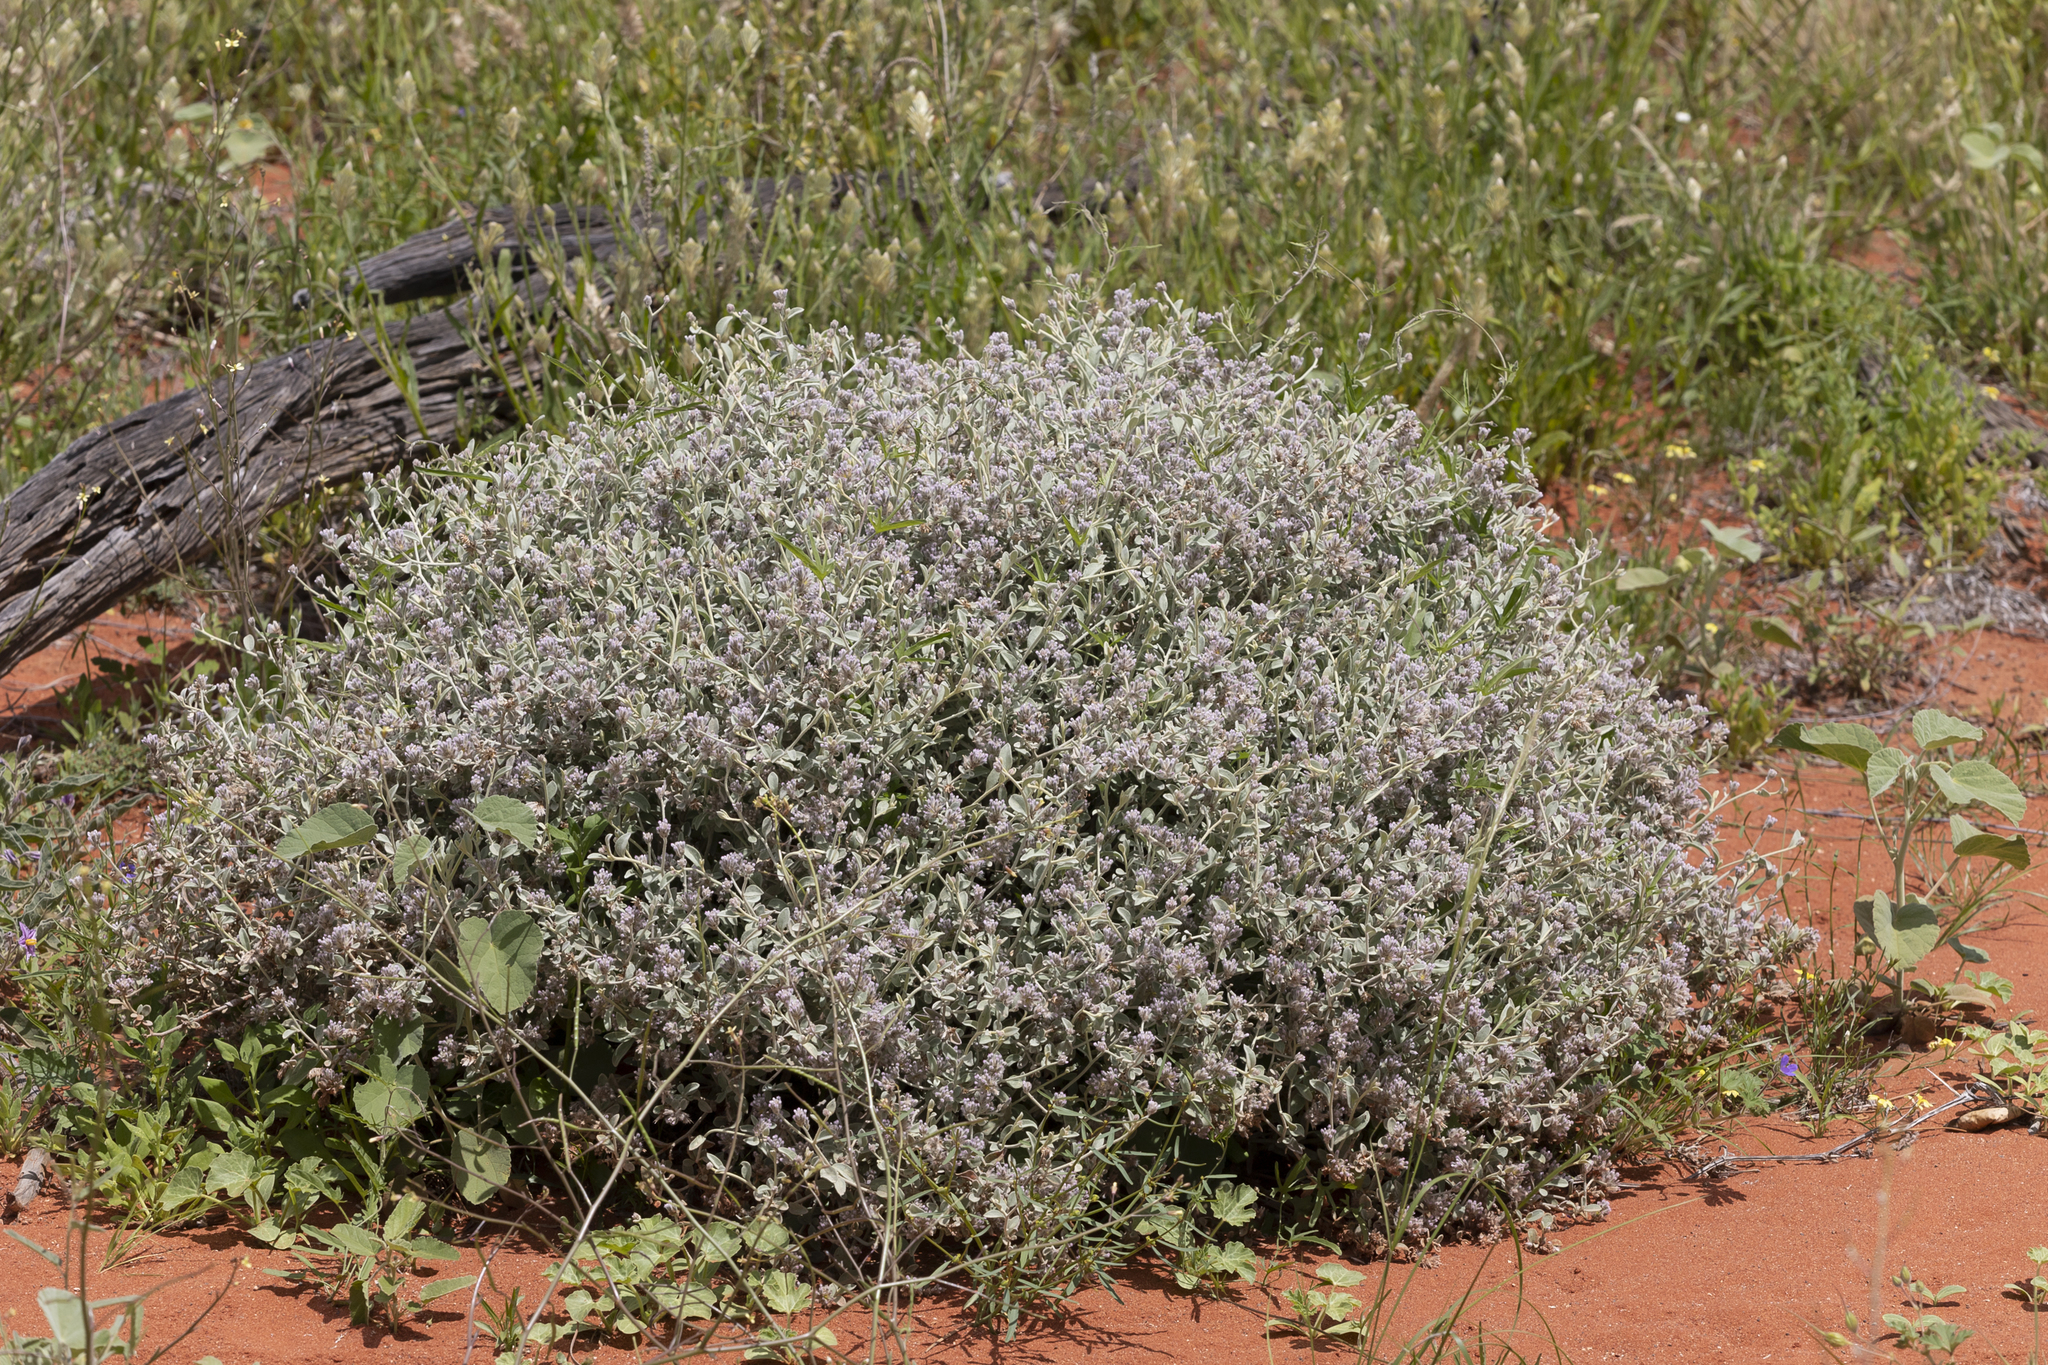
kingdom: Plantae
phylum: Tracheophyta
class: Magnoliopsida
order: Caryophyllales
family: Amaranthaceae
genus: Ptilotus
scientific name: Ptilotus obovatus
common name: Cottonbush
